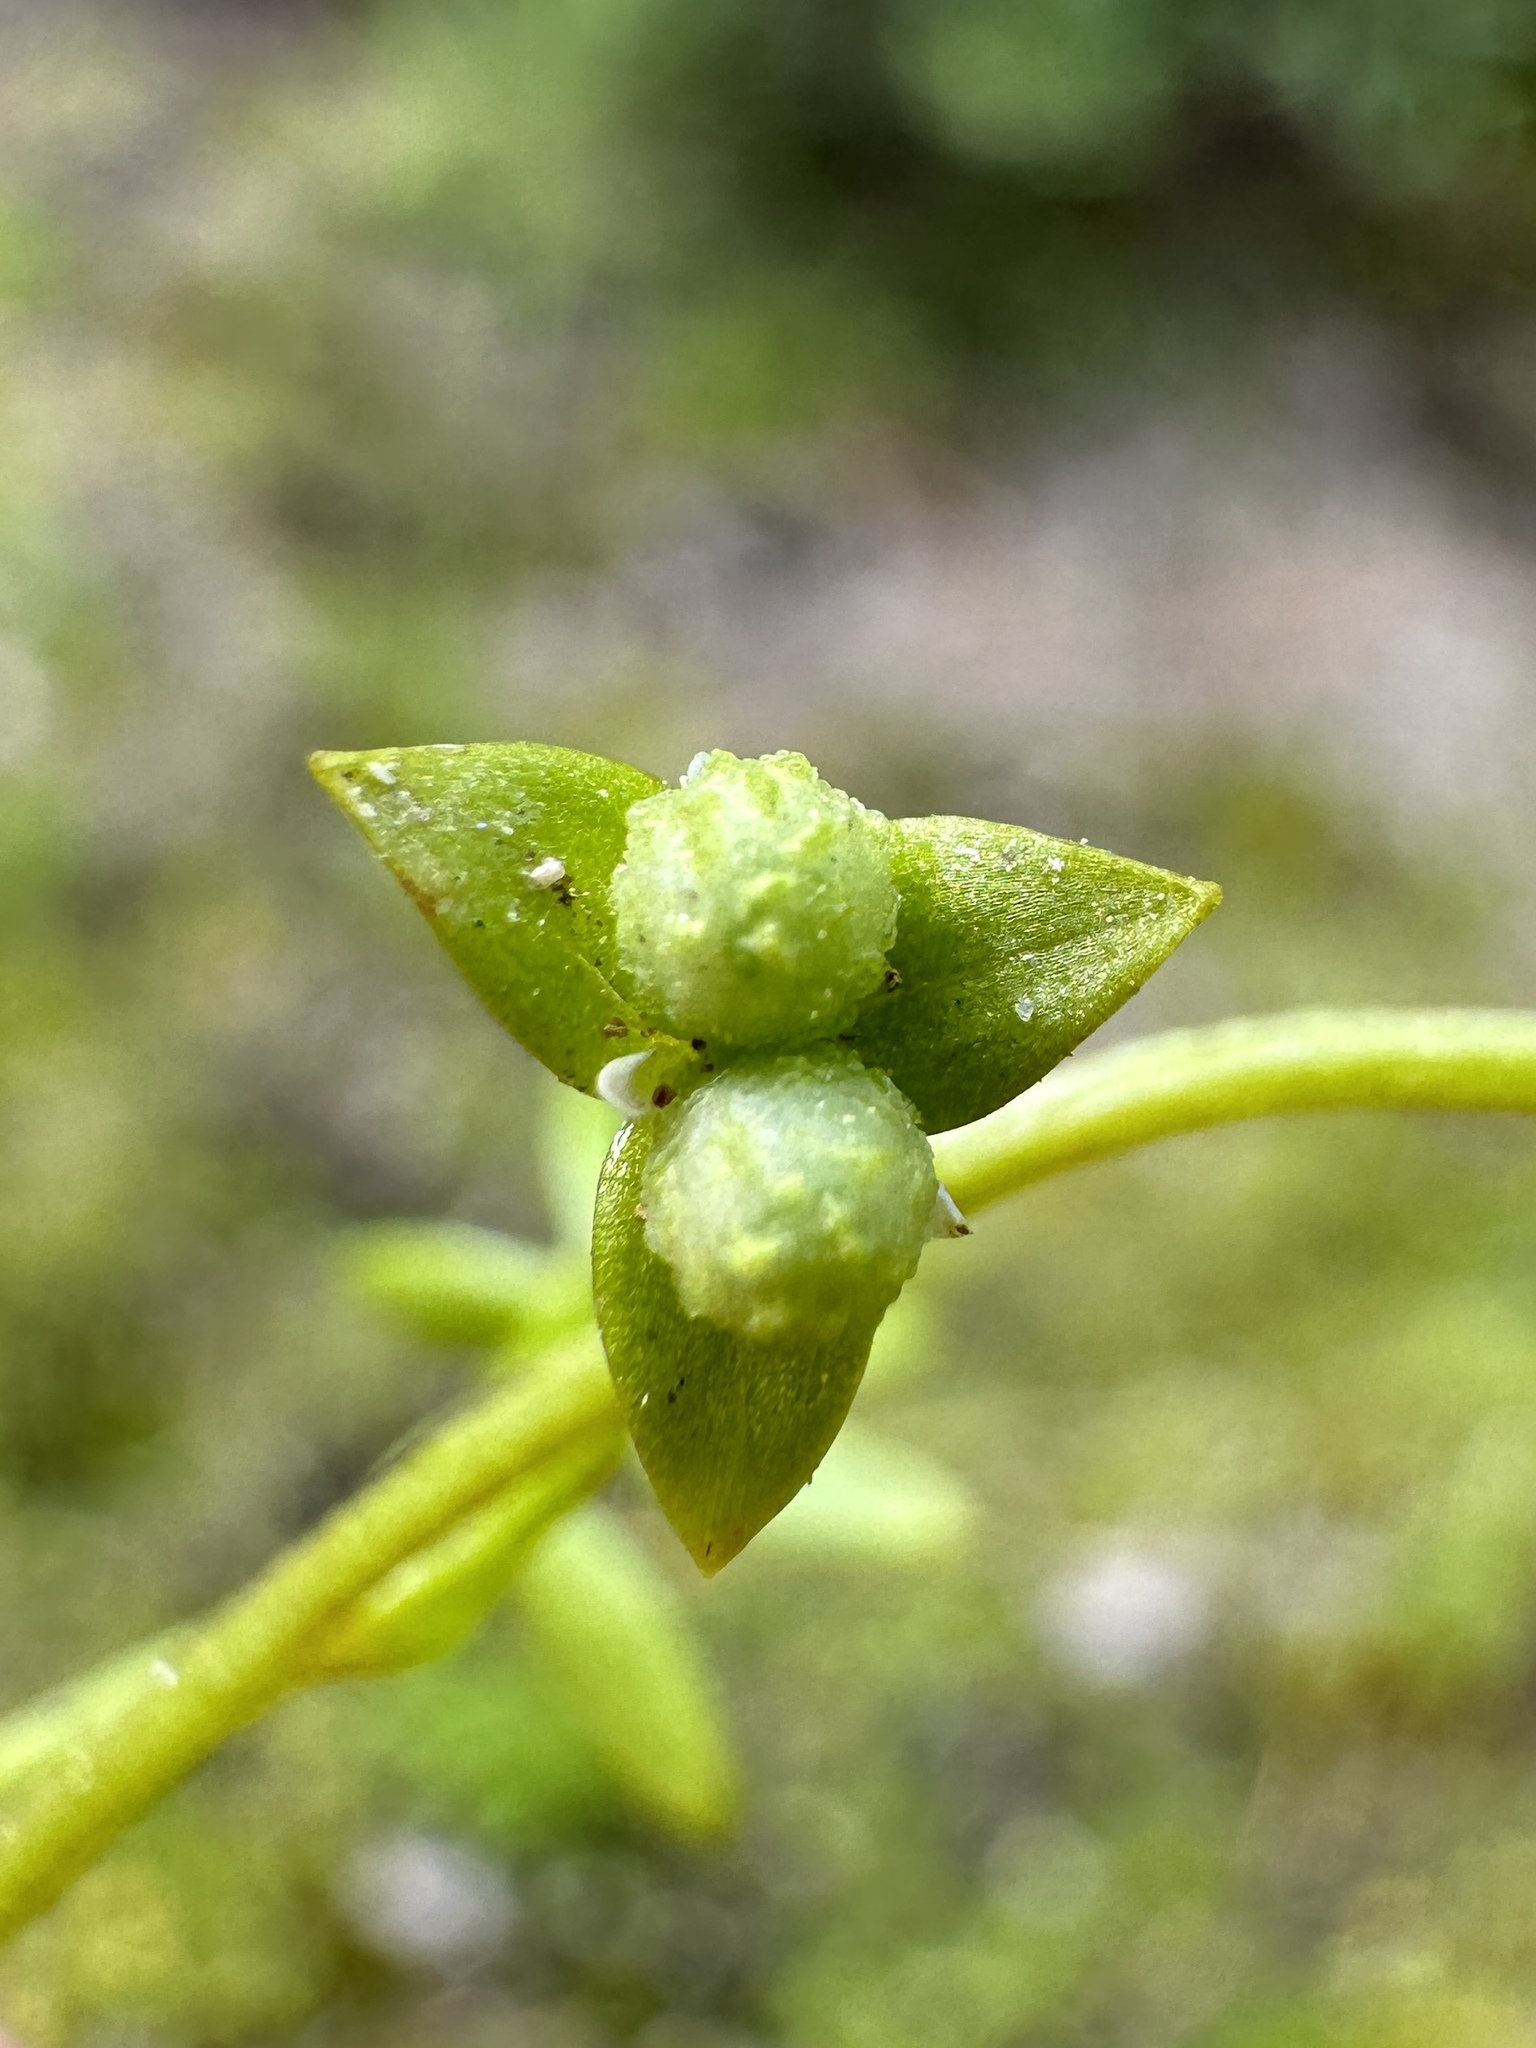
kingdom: Plantae
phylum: Tracheophyta
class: Magnoliopsida
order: Brassicales
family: Limnanthaceae
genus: Floerkea
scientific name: Floerkea proserpinacoides
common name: False mermaid
